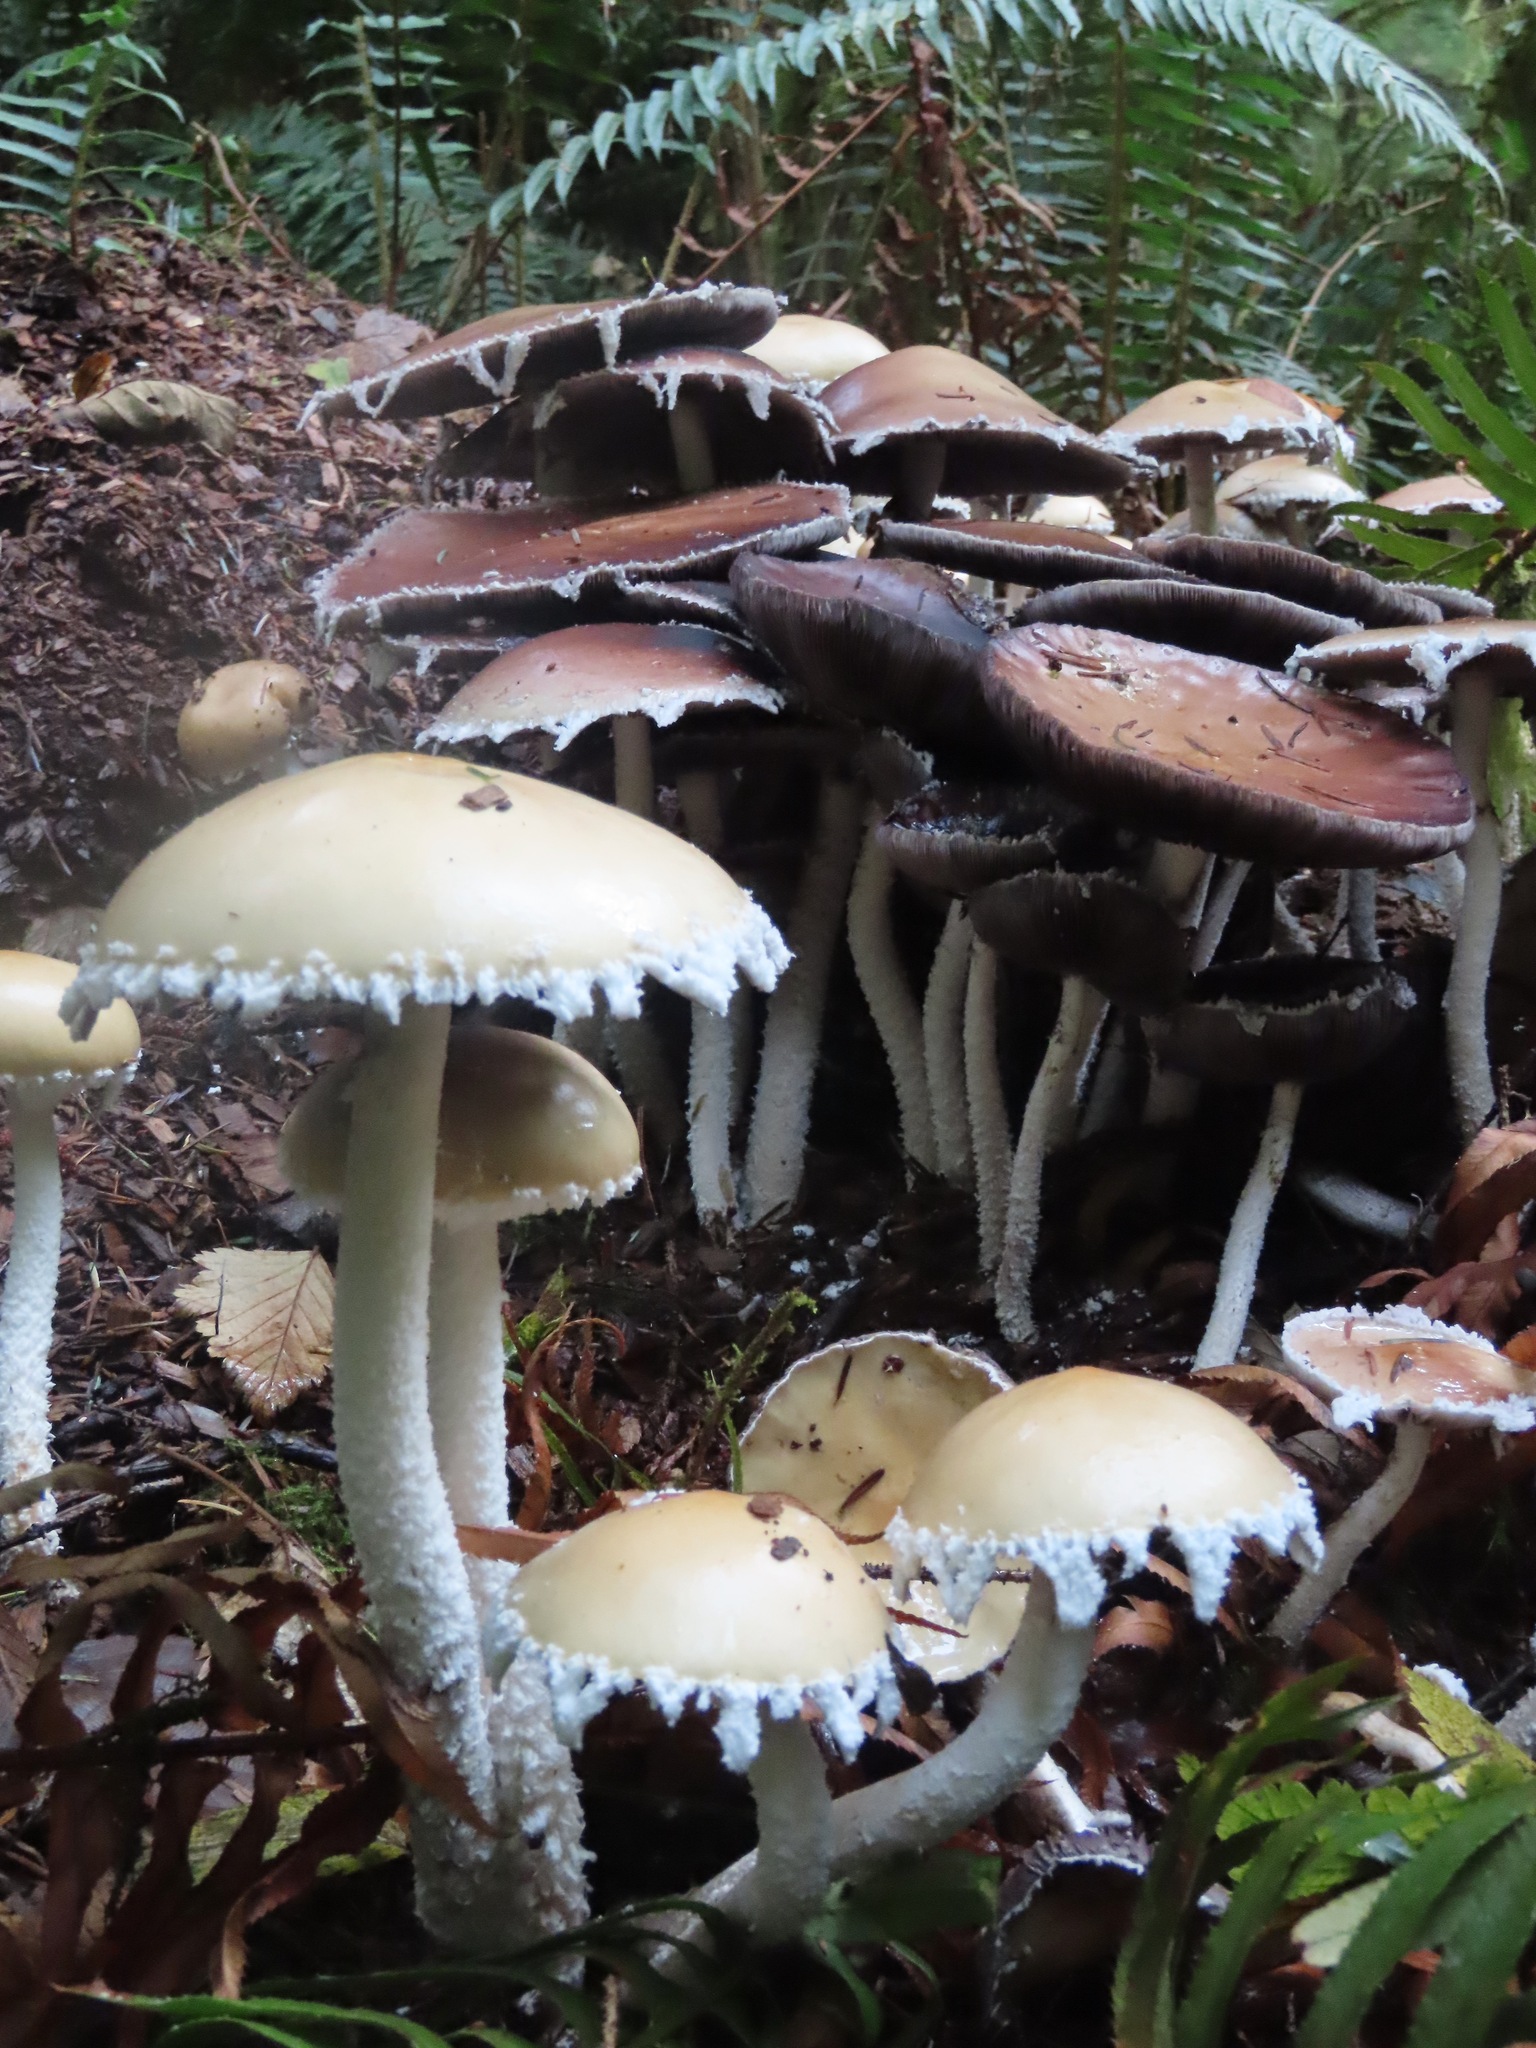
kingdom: Fungi
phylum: Basidiomycota
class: Agaricomycetes
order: Agaricales
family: Strophariaceae
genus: Stropharia
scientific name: Stropharia ambigua
